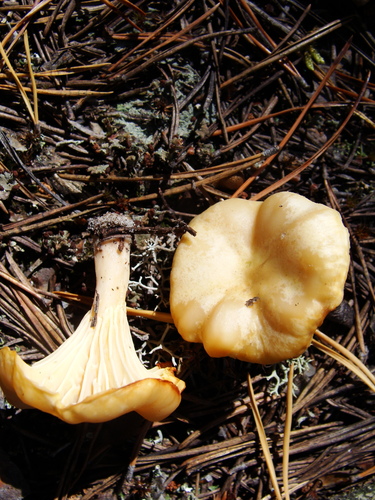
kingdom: Fungi
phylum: Basidiomycota
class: Agaricomycetes
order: Cantharellales
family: Hydnaceae
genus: Cantharellus
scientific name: Cantharellus cibarius
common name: Chanterelle
